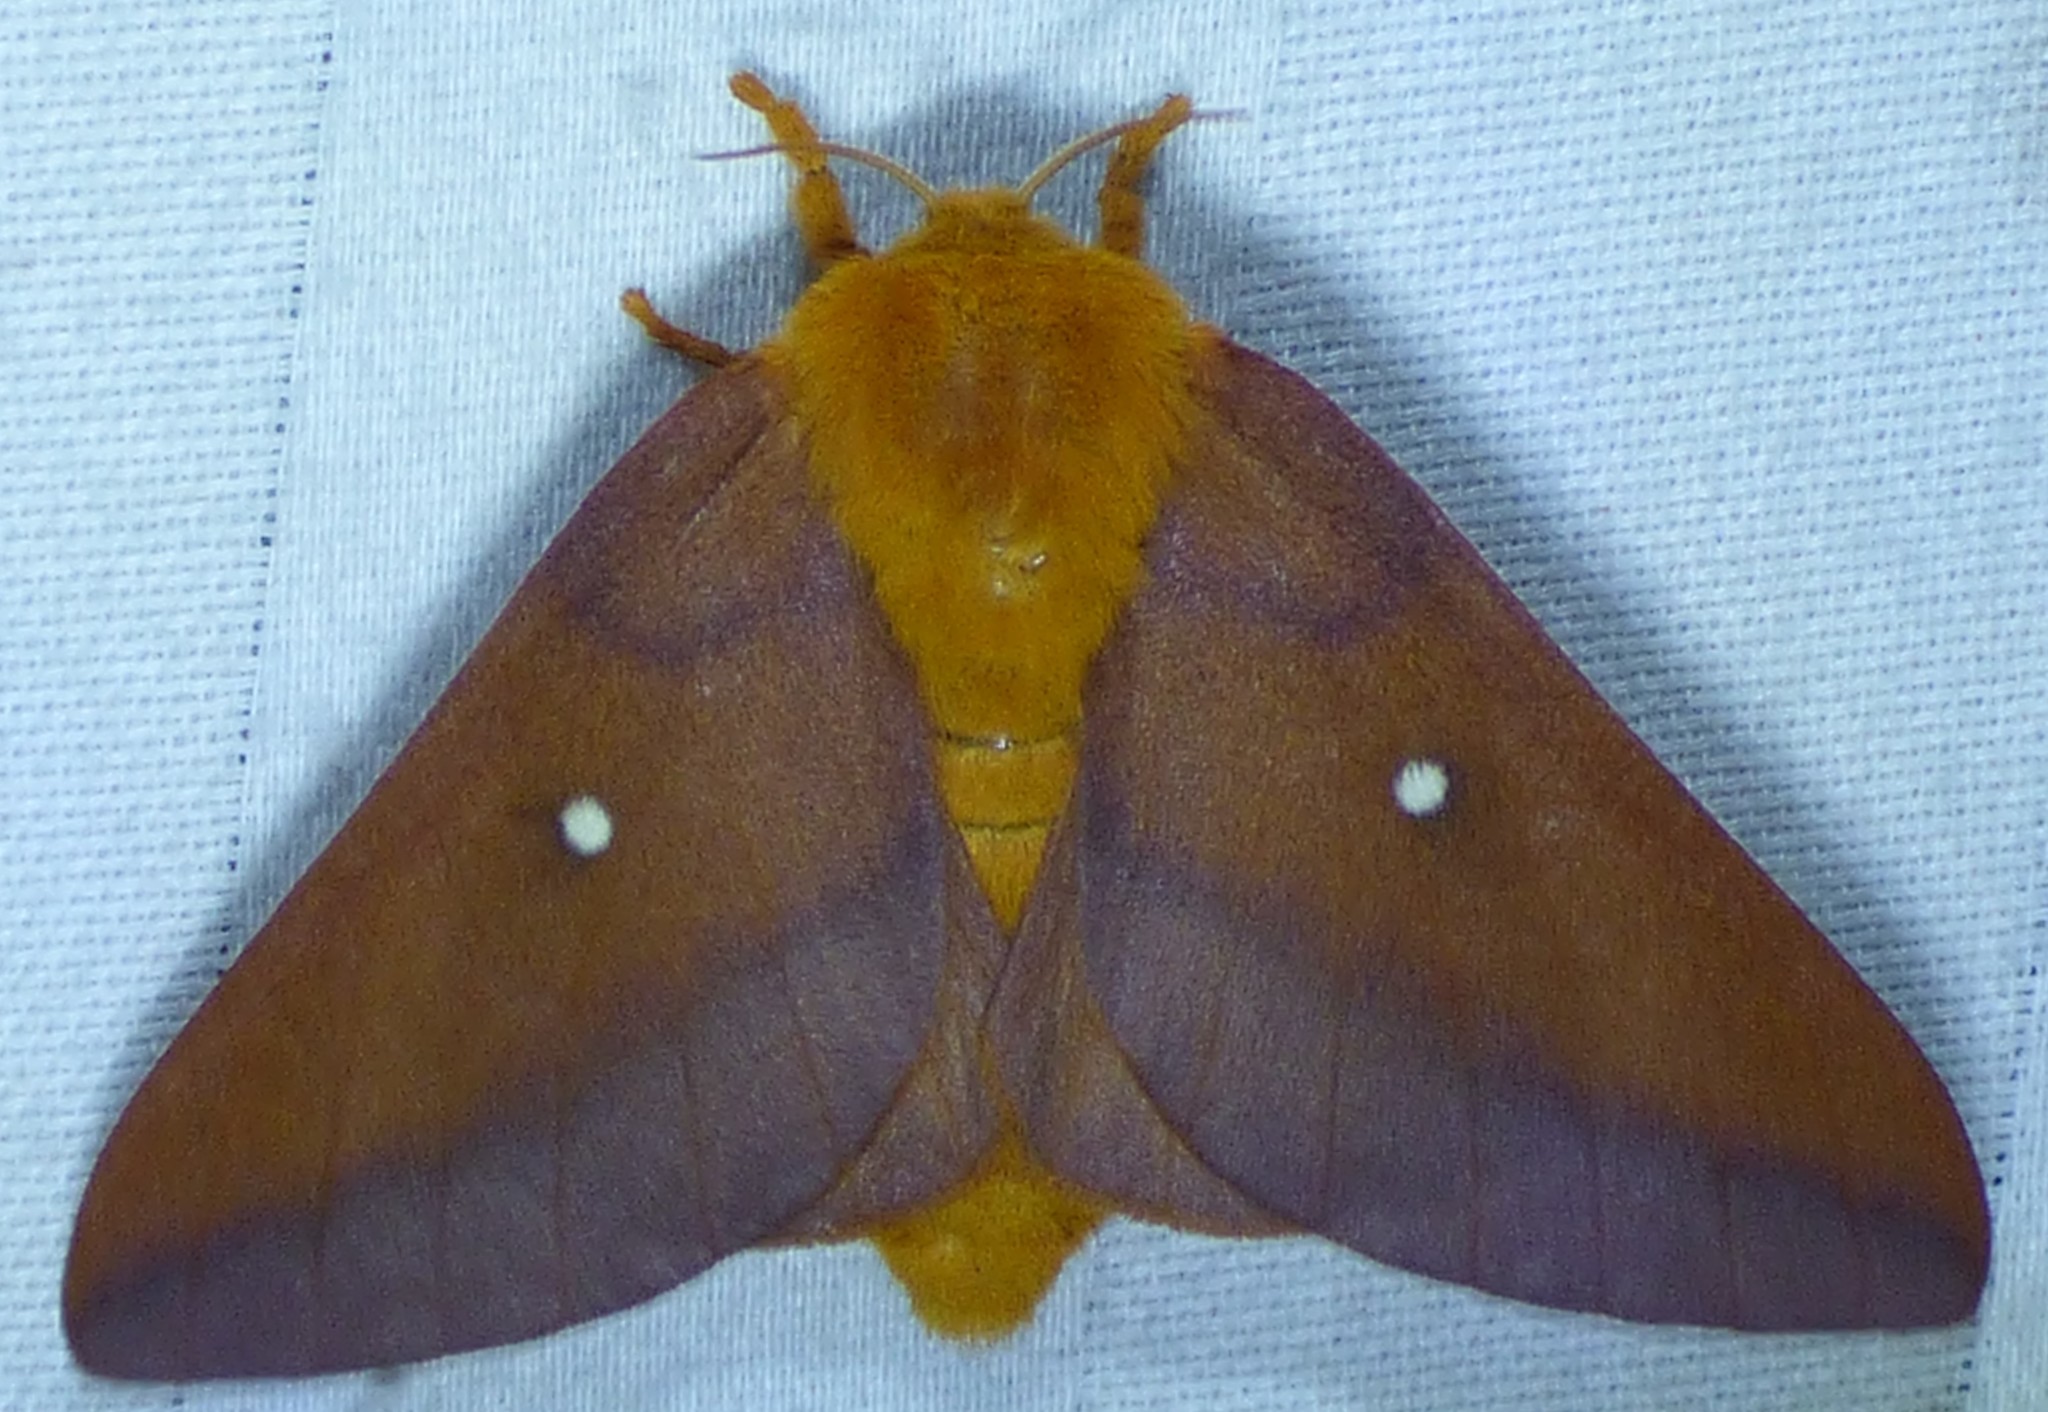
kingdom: Animalia
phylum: Arthropoda
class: Insecta
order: Lepidoptera
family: Saturniidae
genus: Anisota
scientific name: Anisota virginiensis
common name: Pink striped oakworm moth
